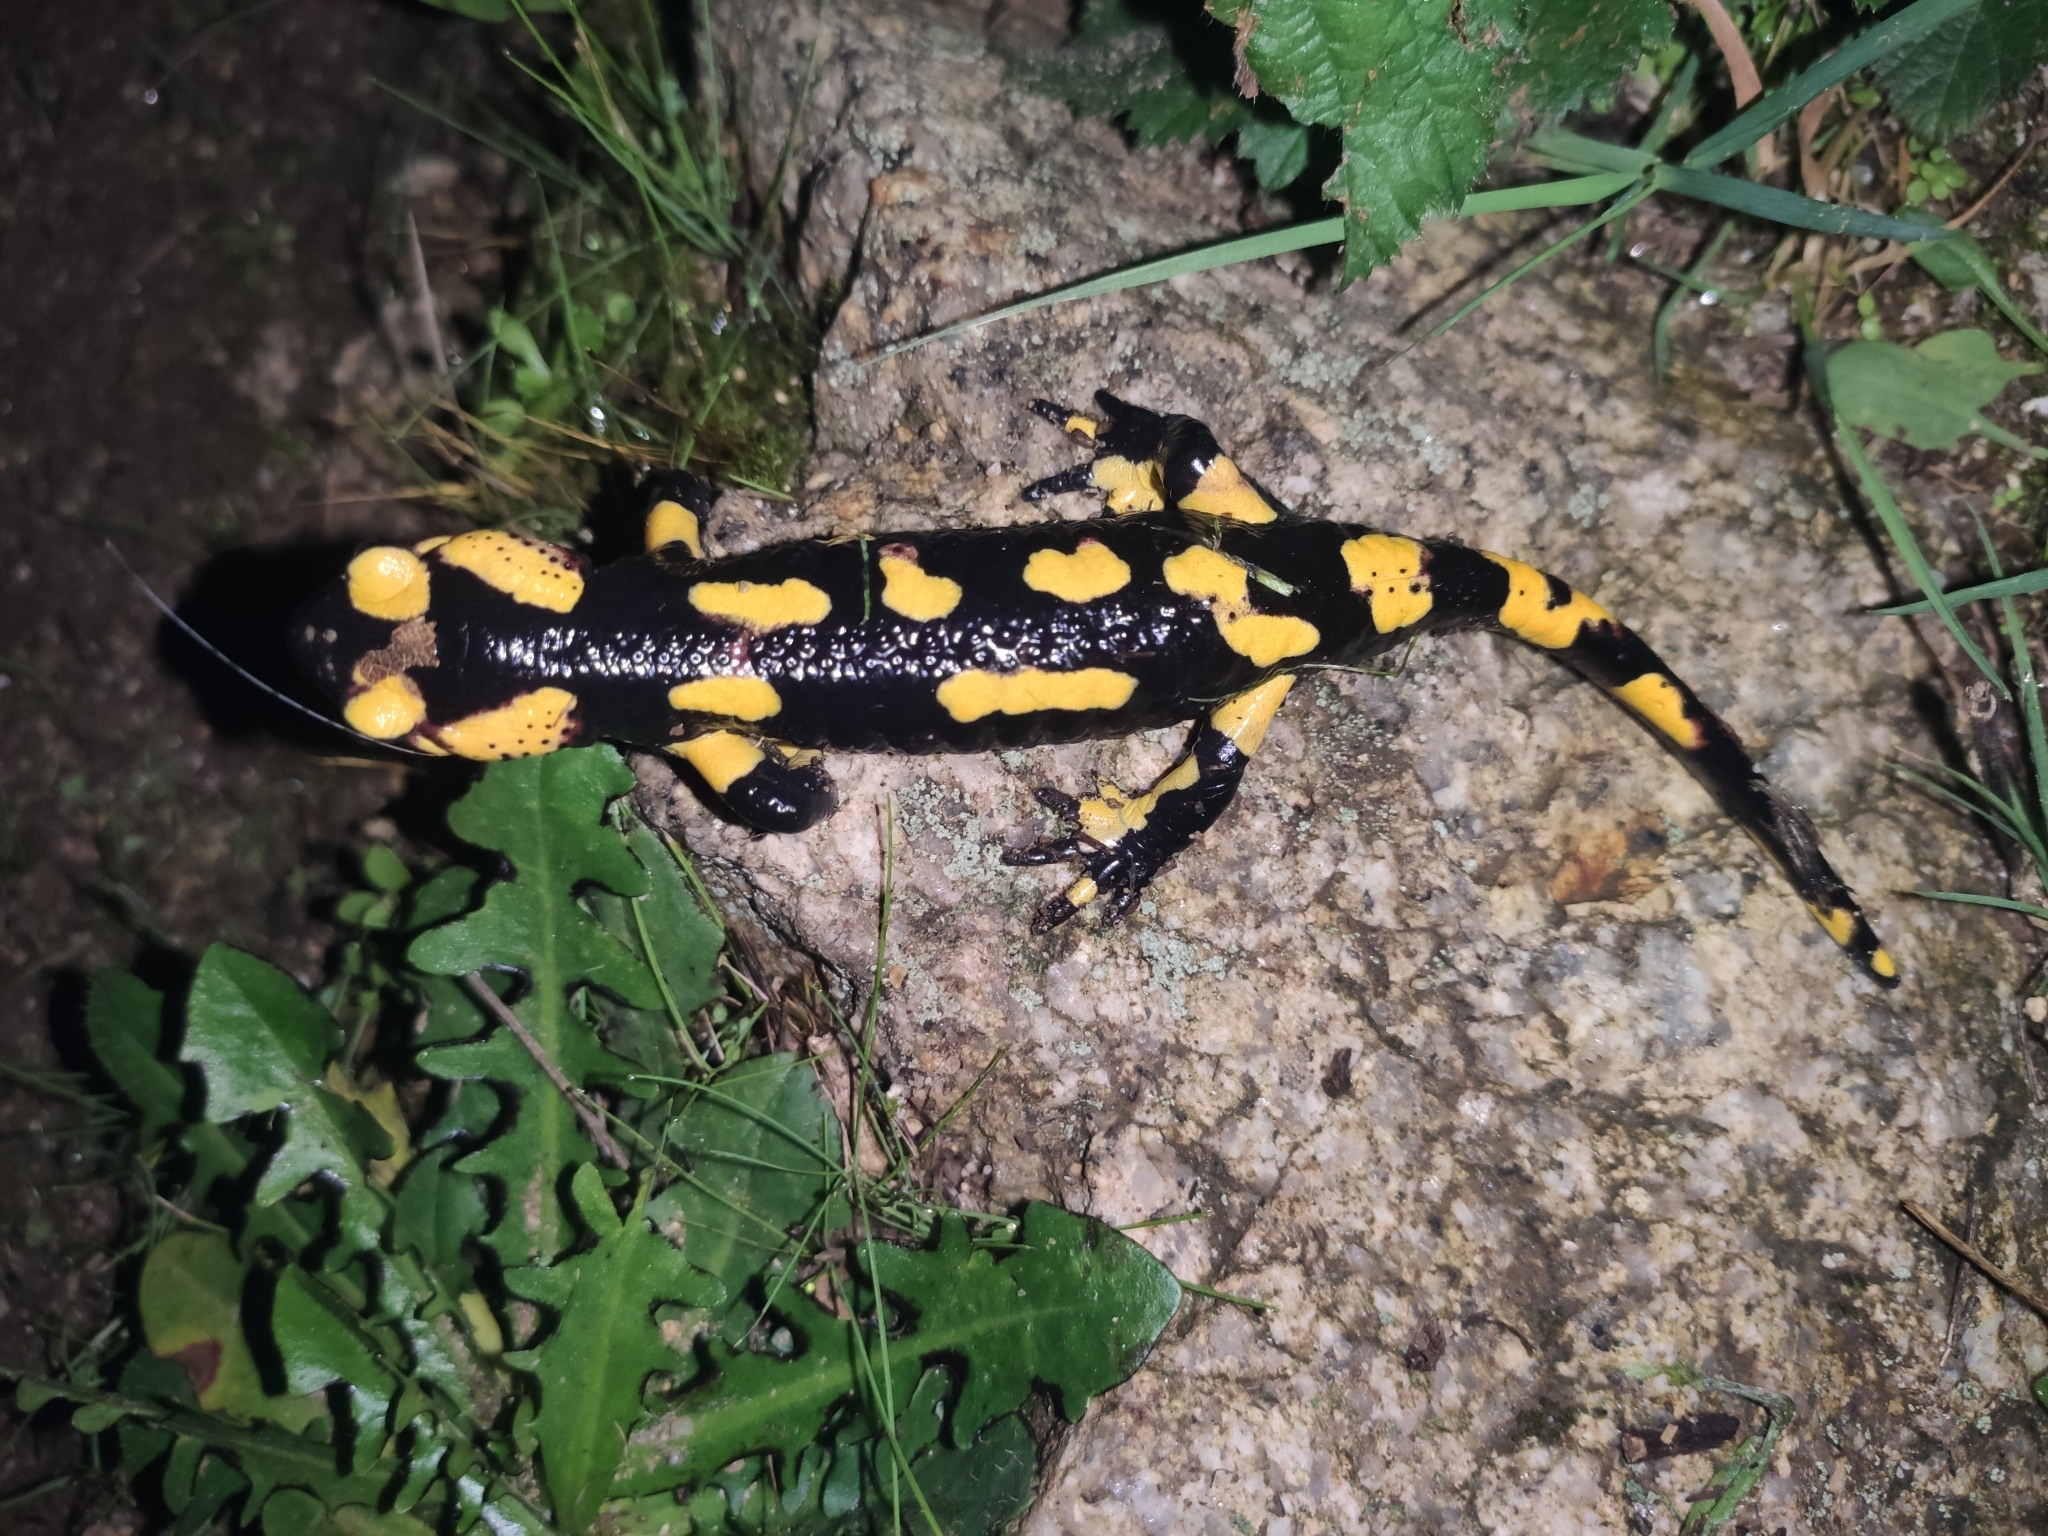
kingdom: Animalia
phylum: Chordata
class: Amphibia
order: Caudata
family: Salamandridae
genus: Salamandra
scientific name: Salamandra salamandra
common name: Fire salamander
